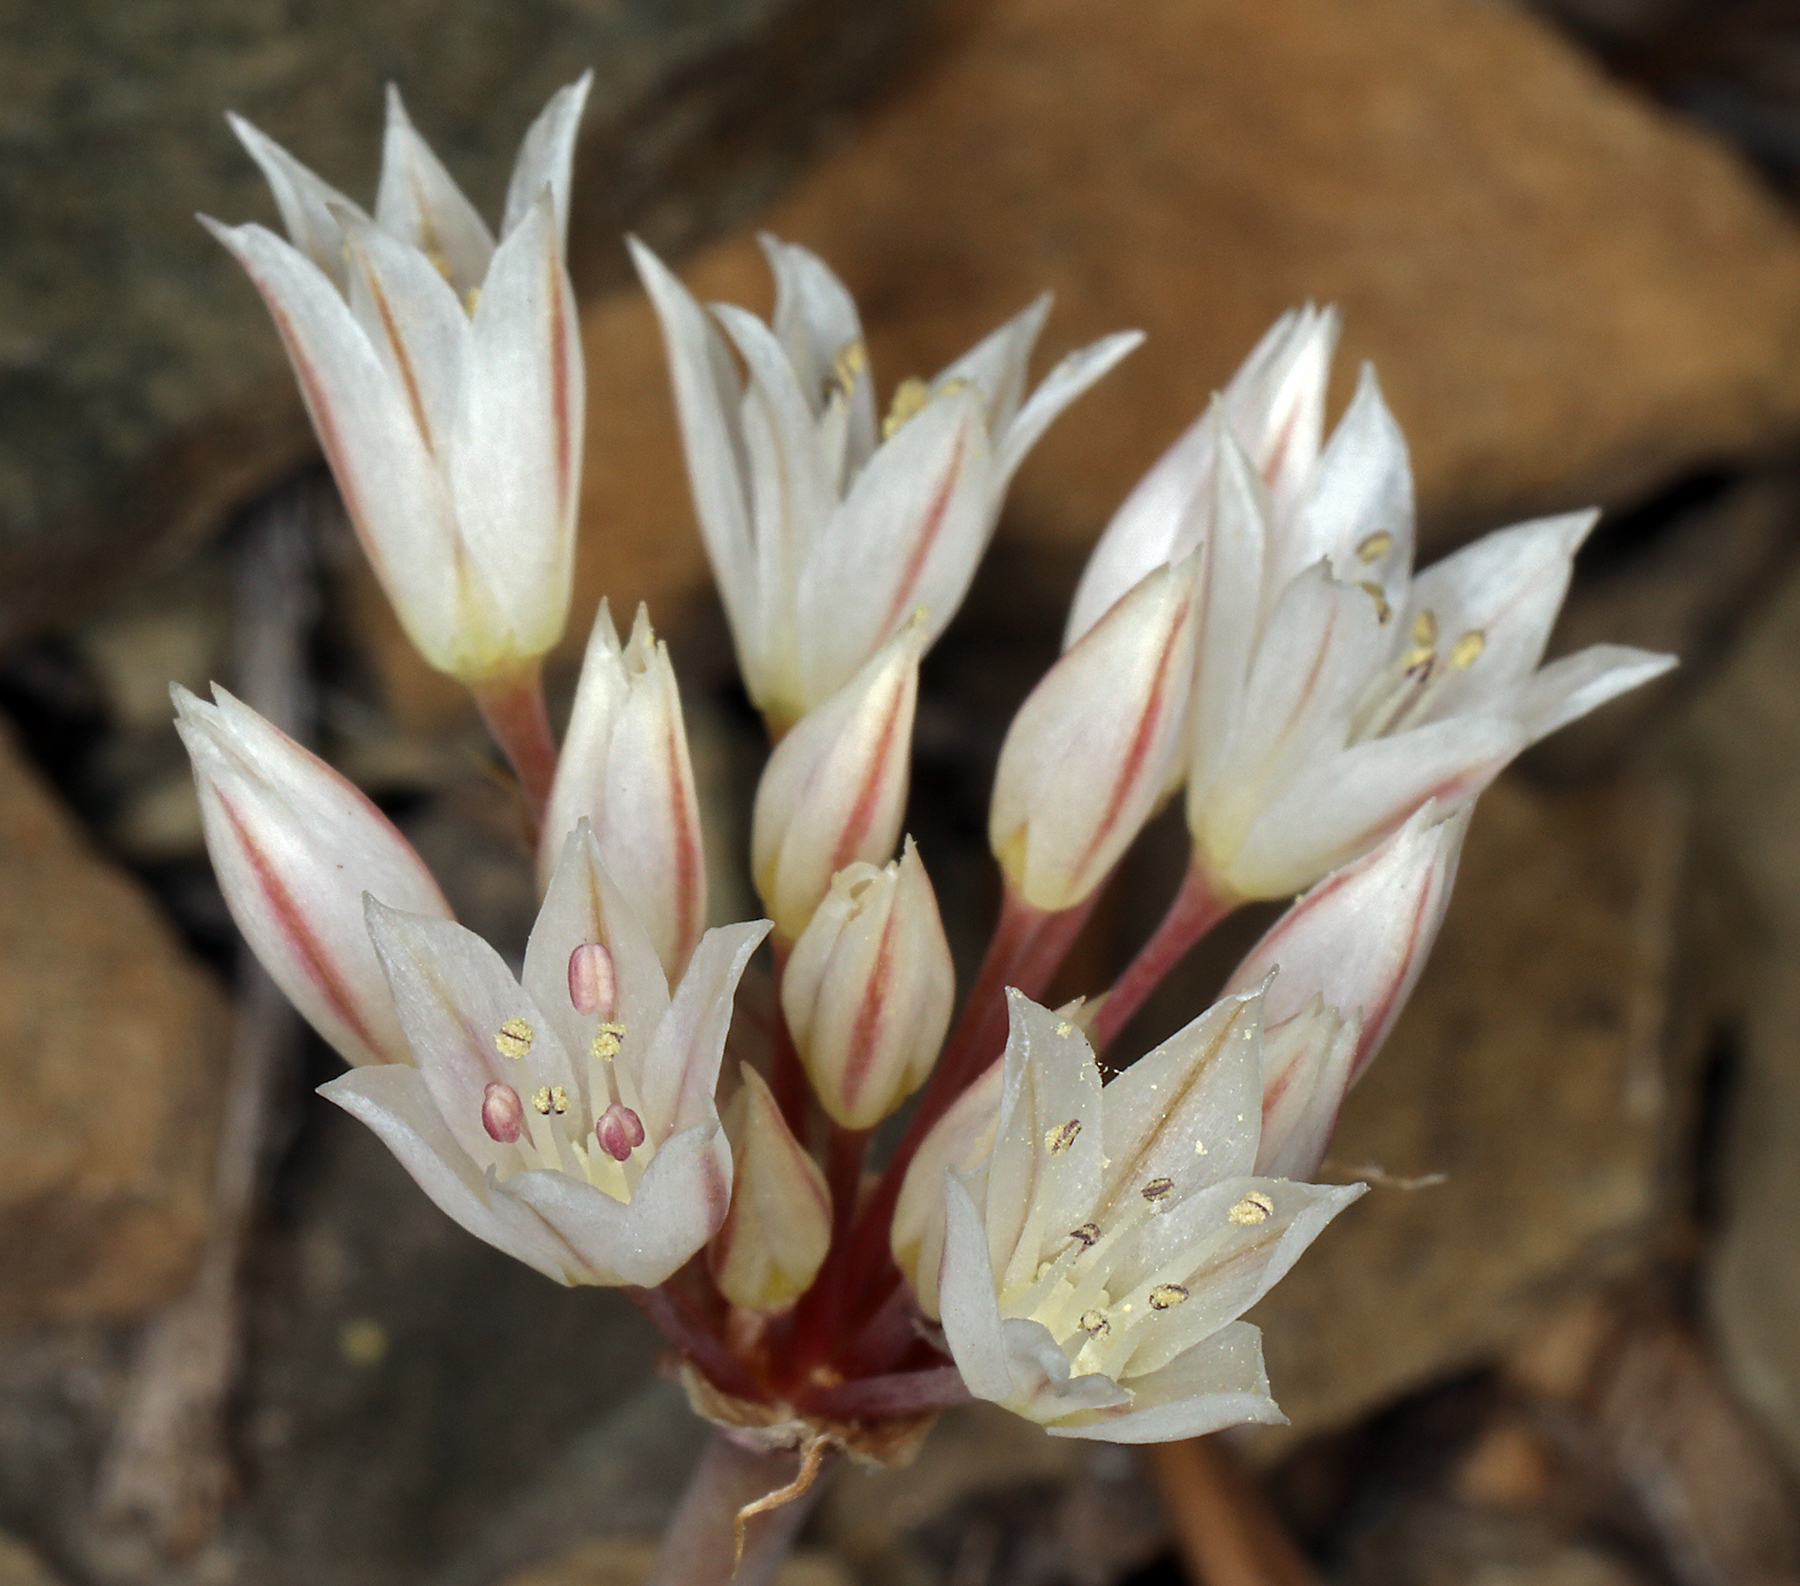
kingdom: Plantae
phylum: Tracheophyta
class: Liliopsida
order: Asparagales
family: Amaryllidaceae
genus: Allium
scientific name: Allium atrorubens
